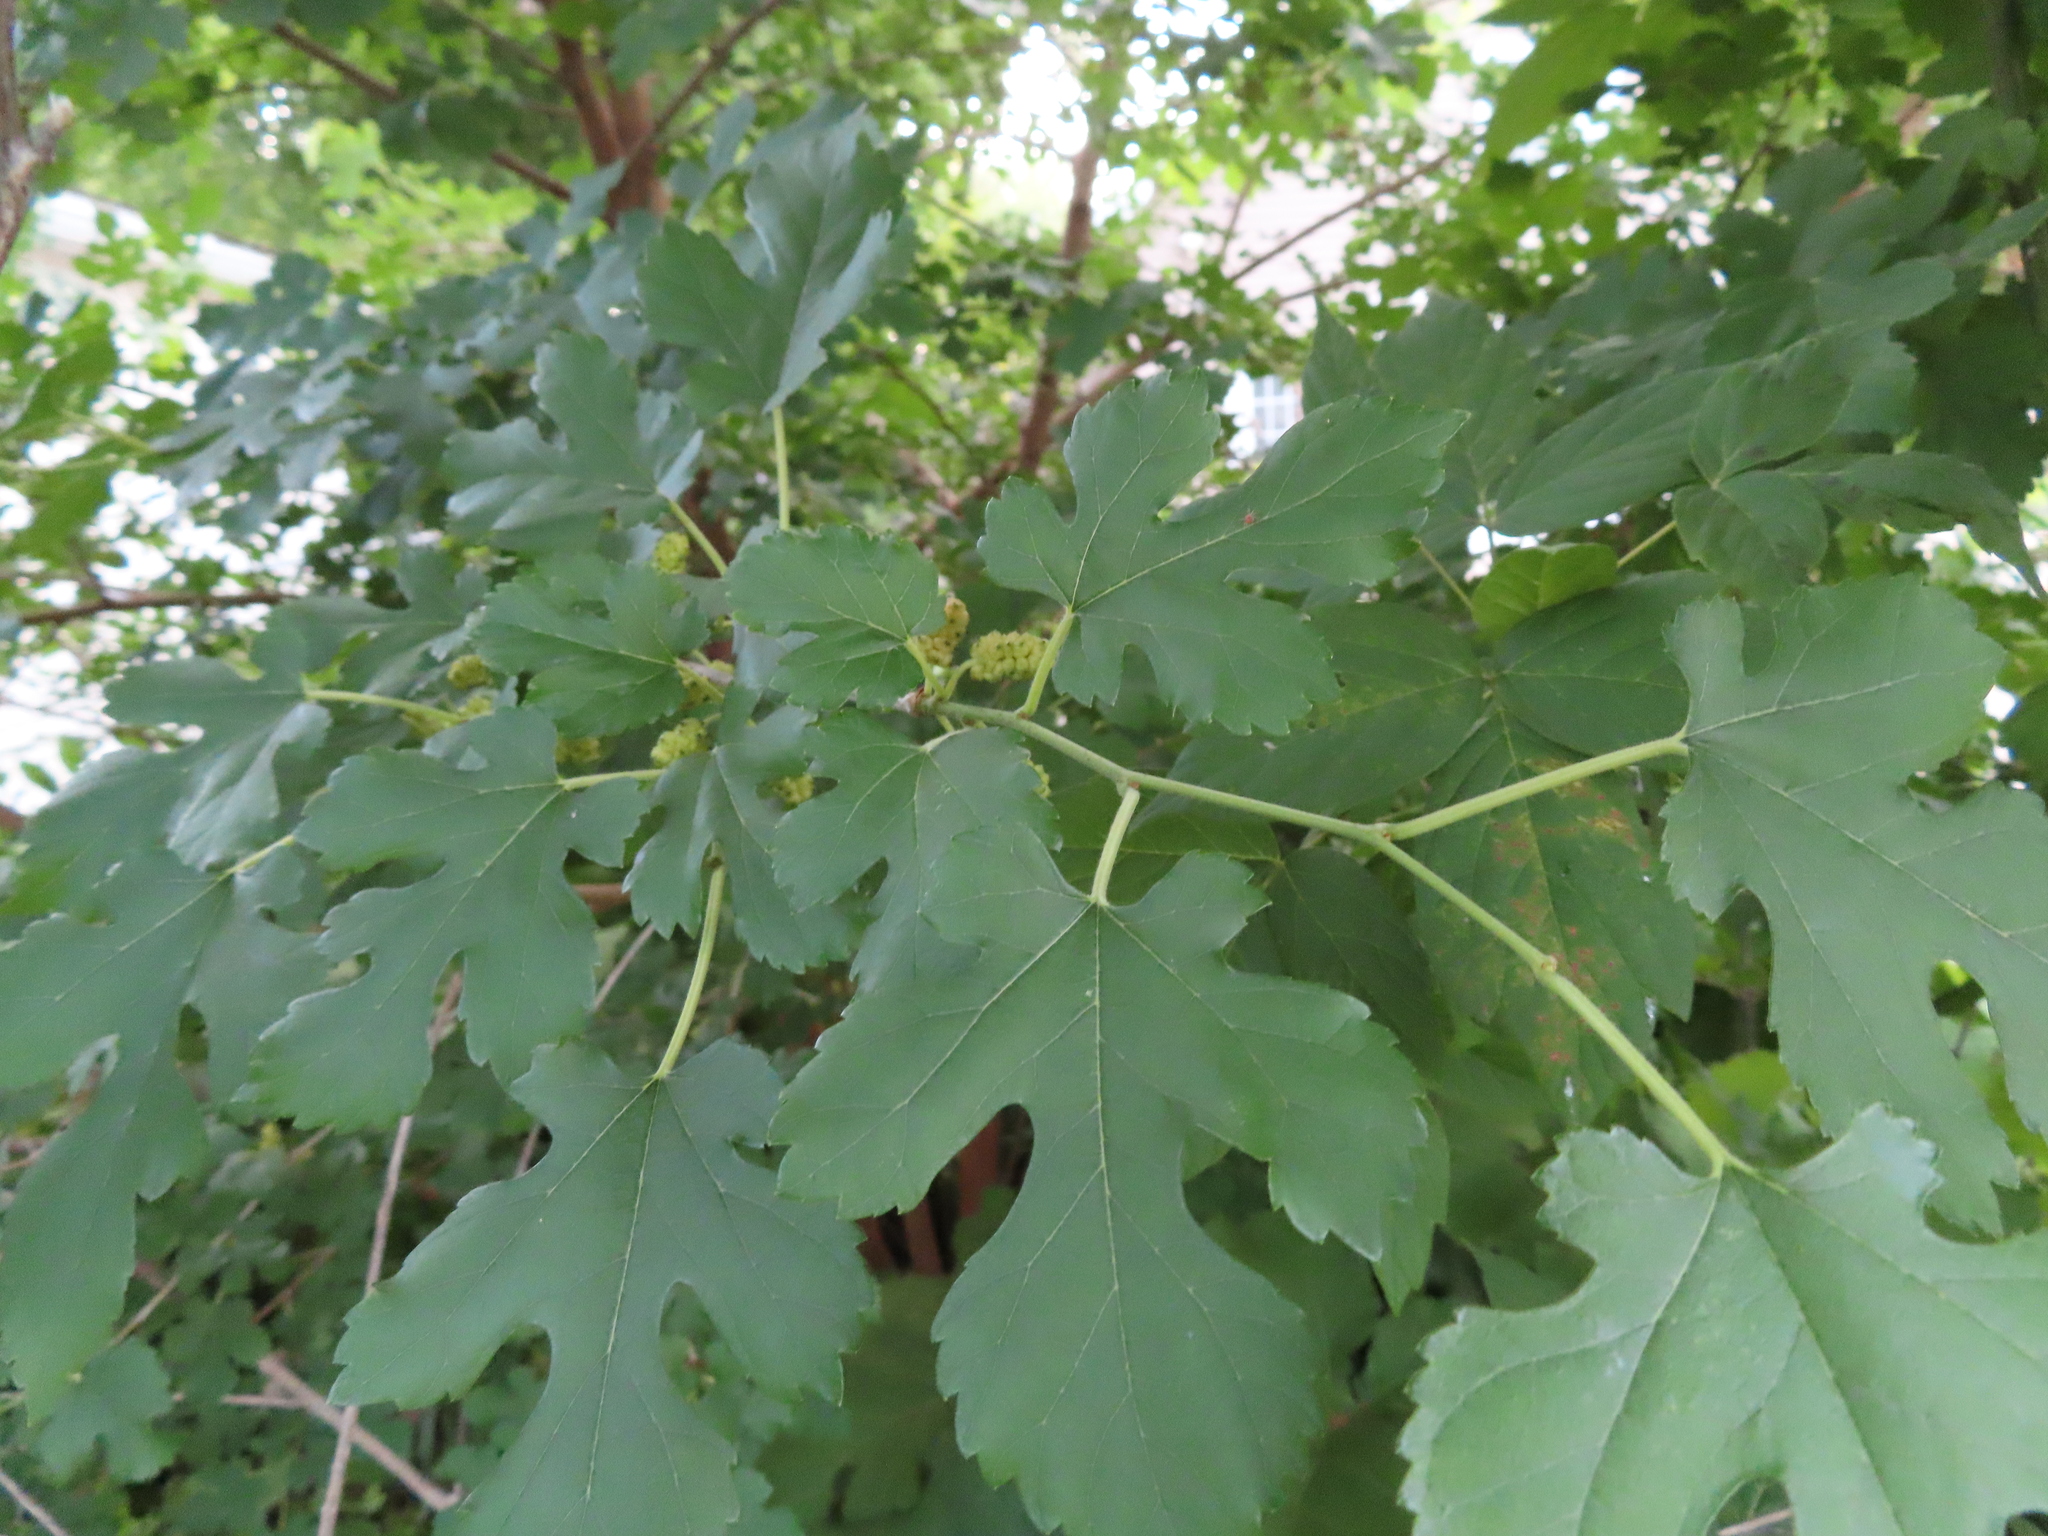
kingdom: Plantae
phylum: Tracheophyta
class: Magnoliopsida
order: Rosales
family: Moraceae
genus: Morus
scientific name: Morus alba
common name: White mulberry
